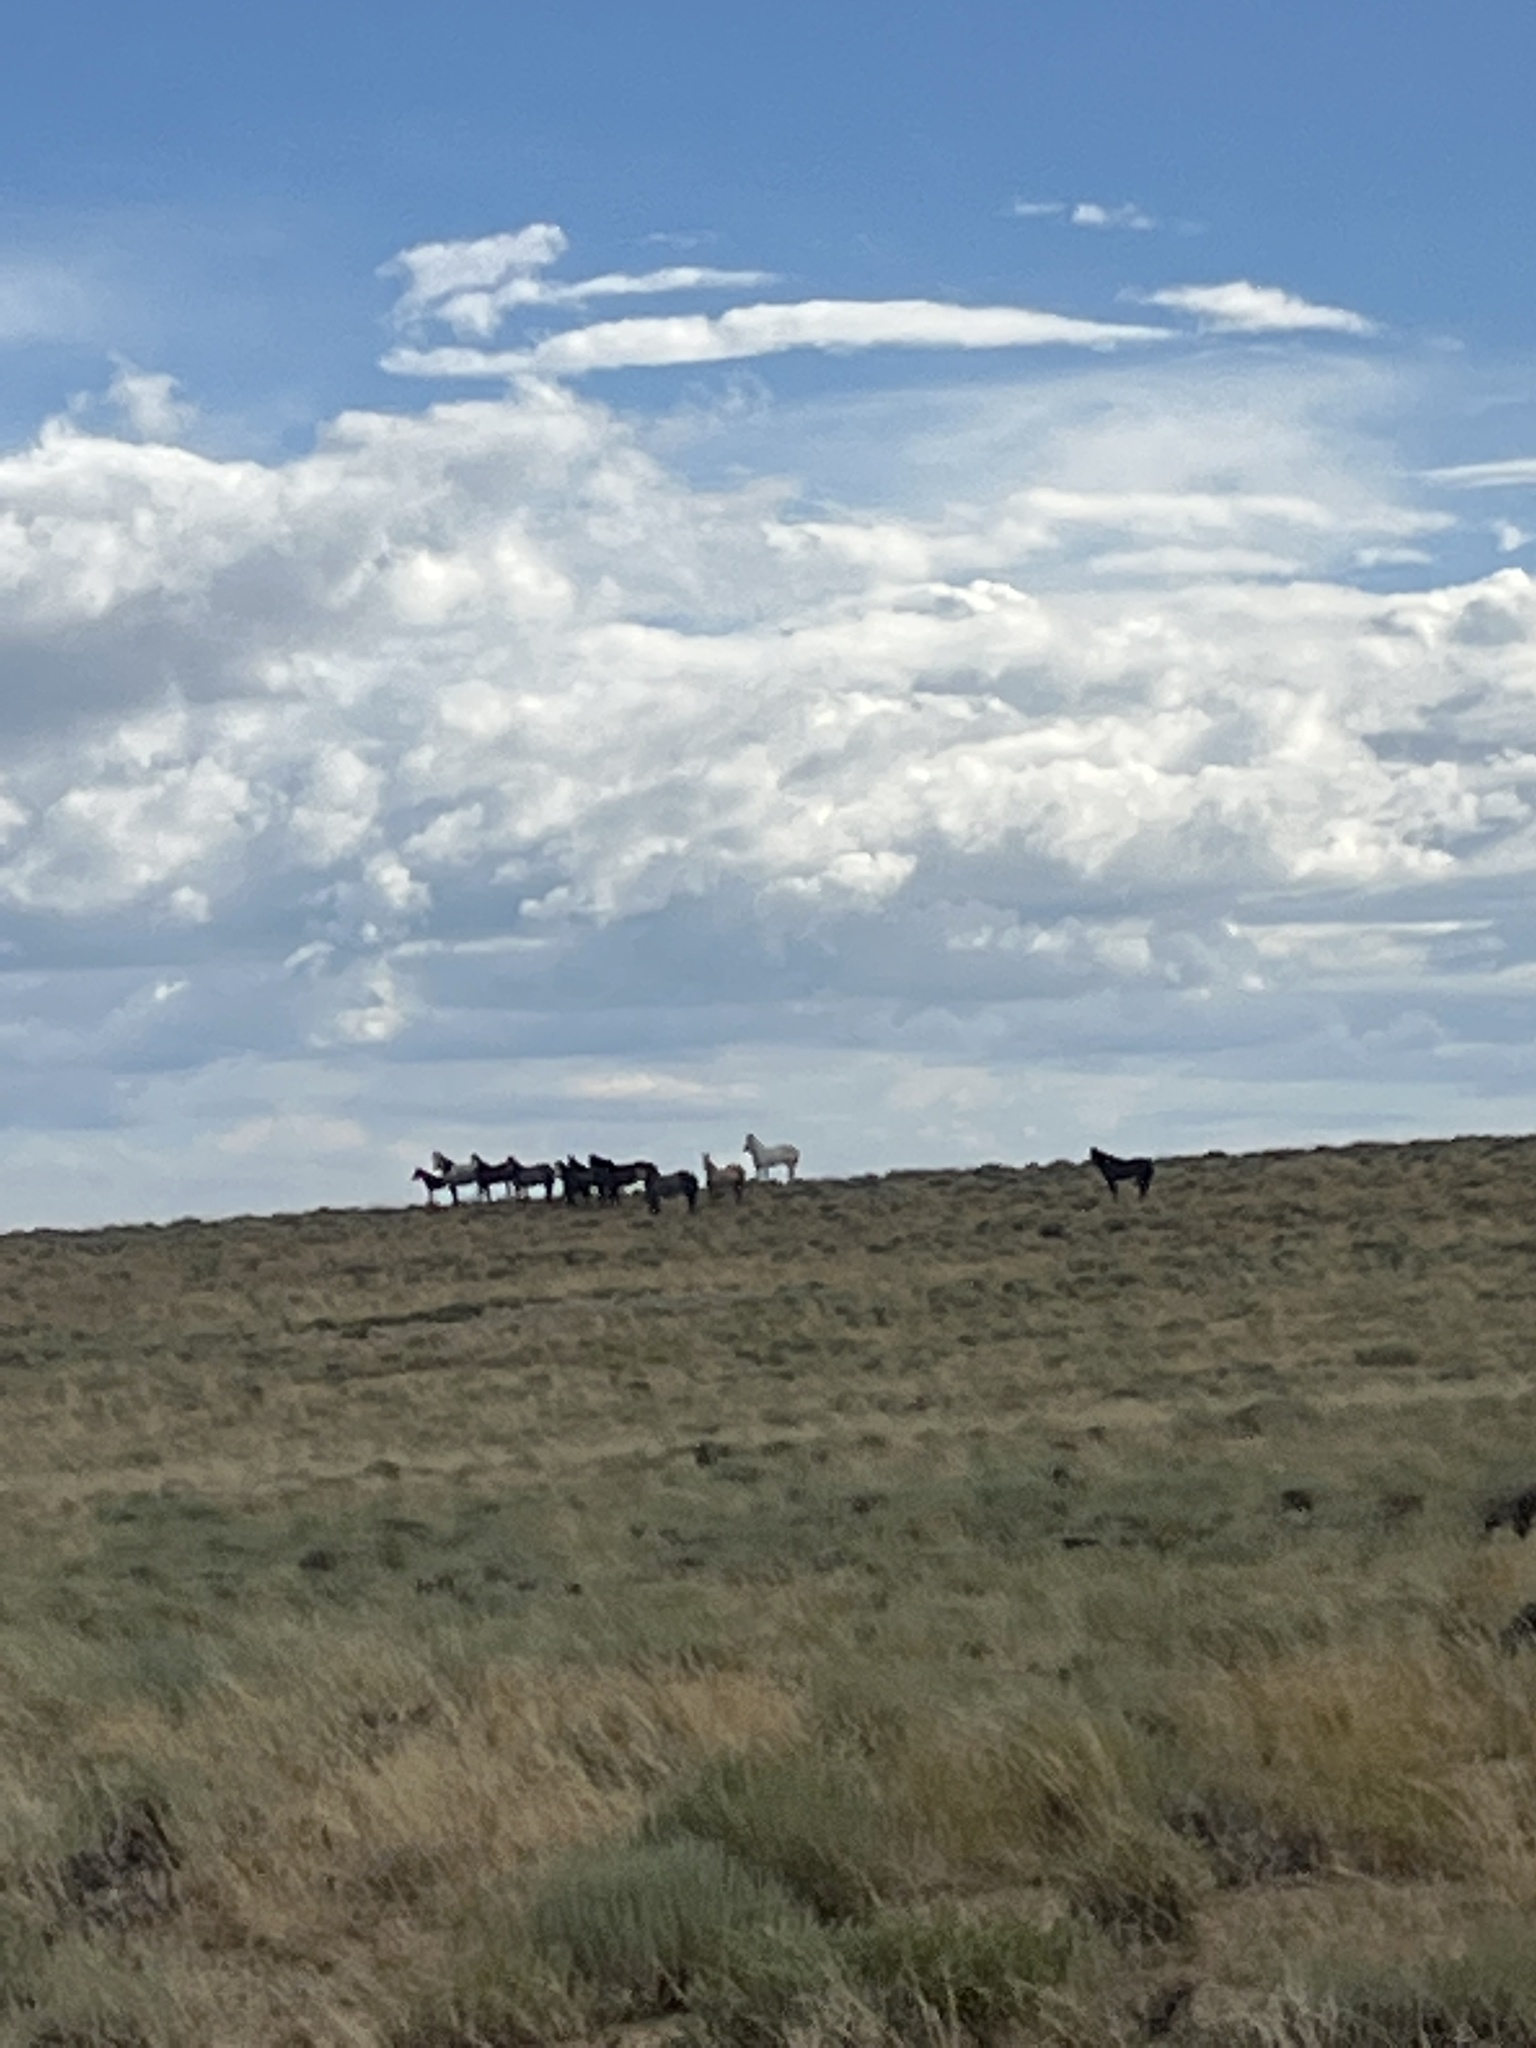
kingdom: Animalia
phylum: Chordata
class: Mammalia
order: Perissodactyla
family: Equidae
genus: Equus
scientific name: Equus caballus
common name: Horse
